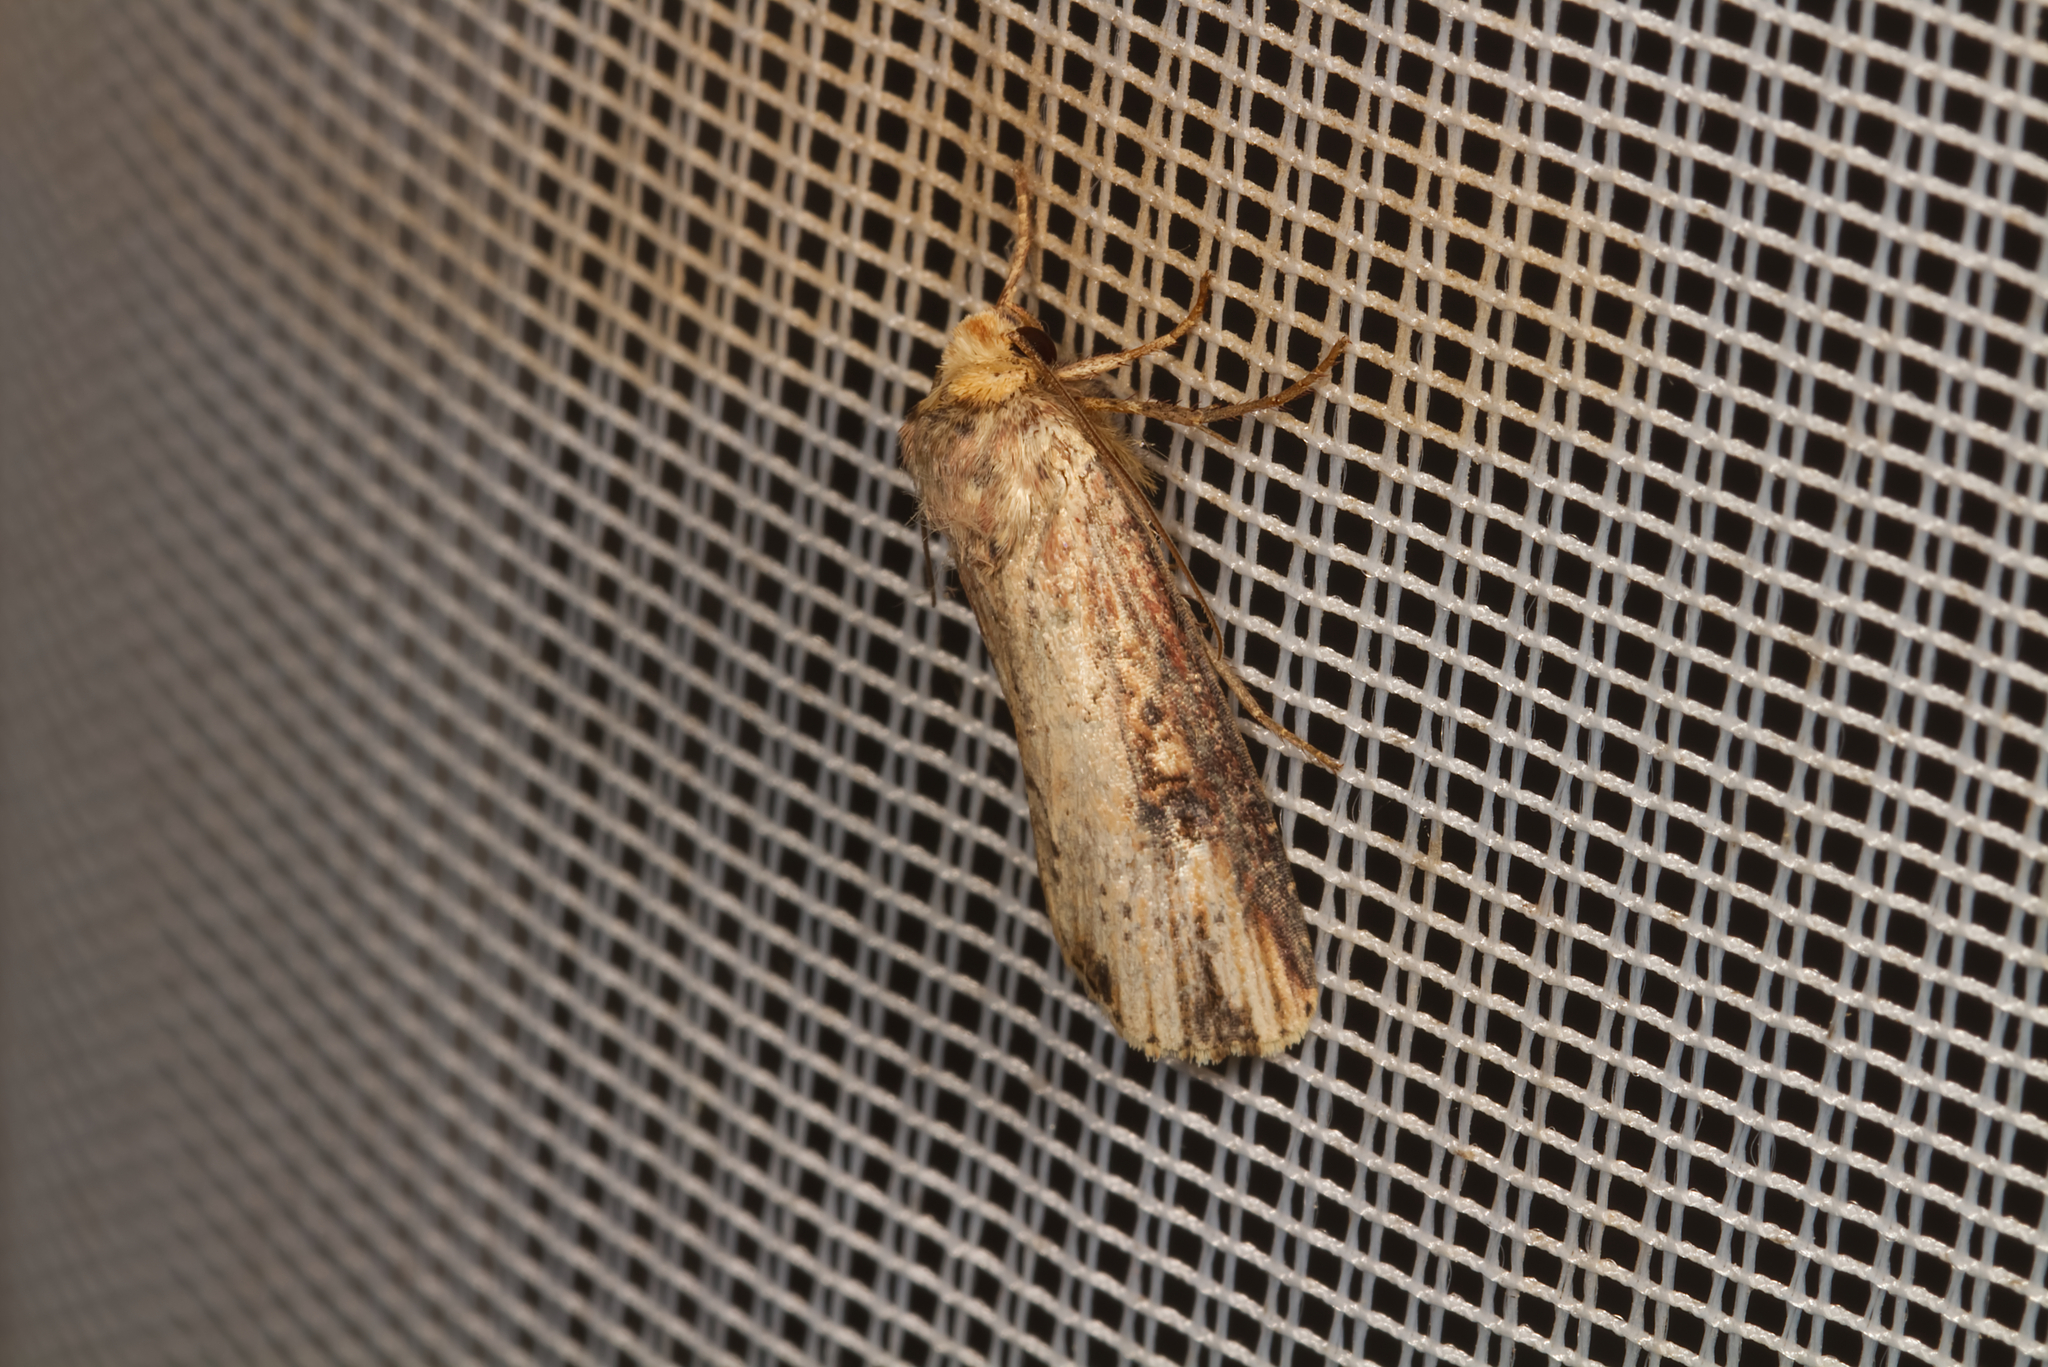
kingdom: Animalia
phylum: Arthropoda
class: Insecta
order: Lepidoptera
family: Noctuidae
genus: Axylia
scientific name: Axylia putris
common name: Flame
